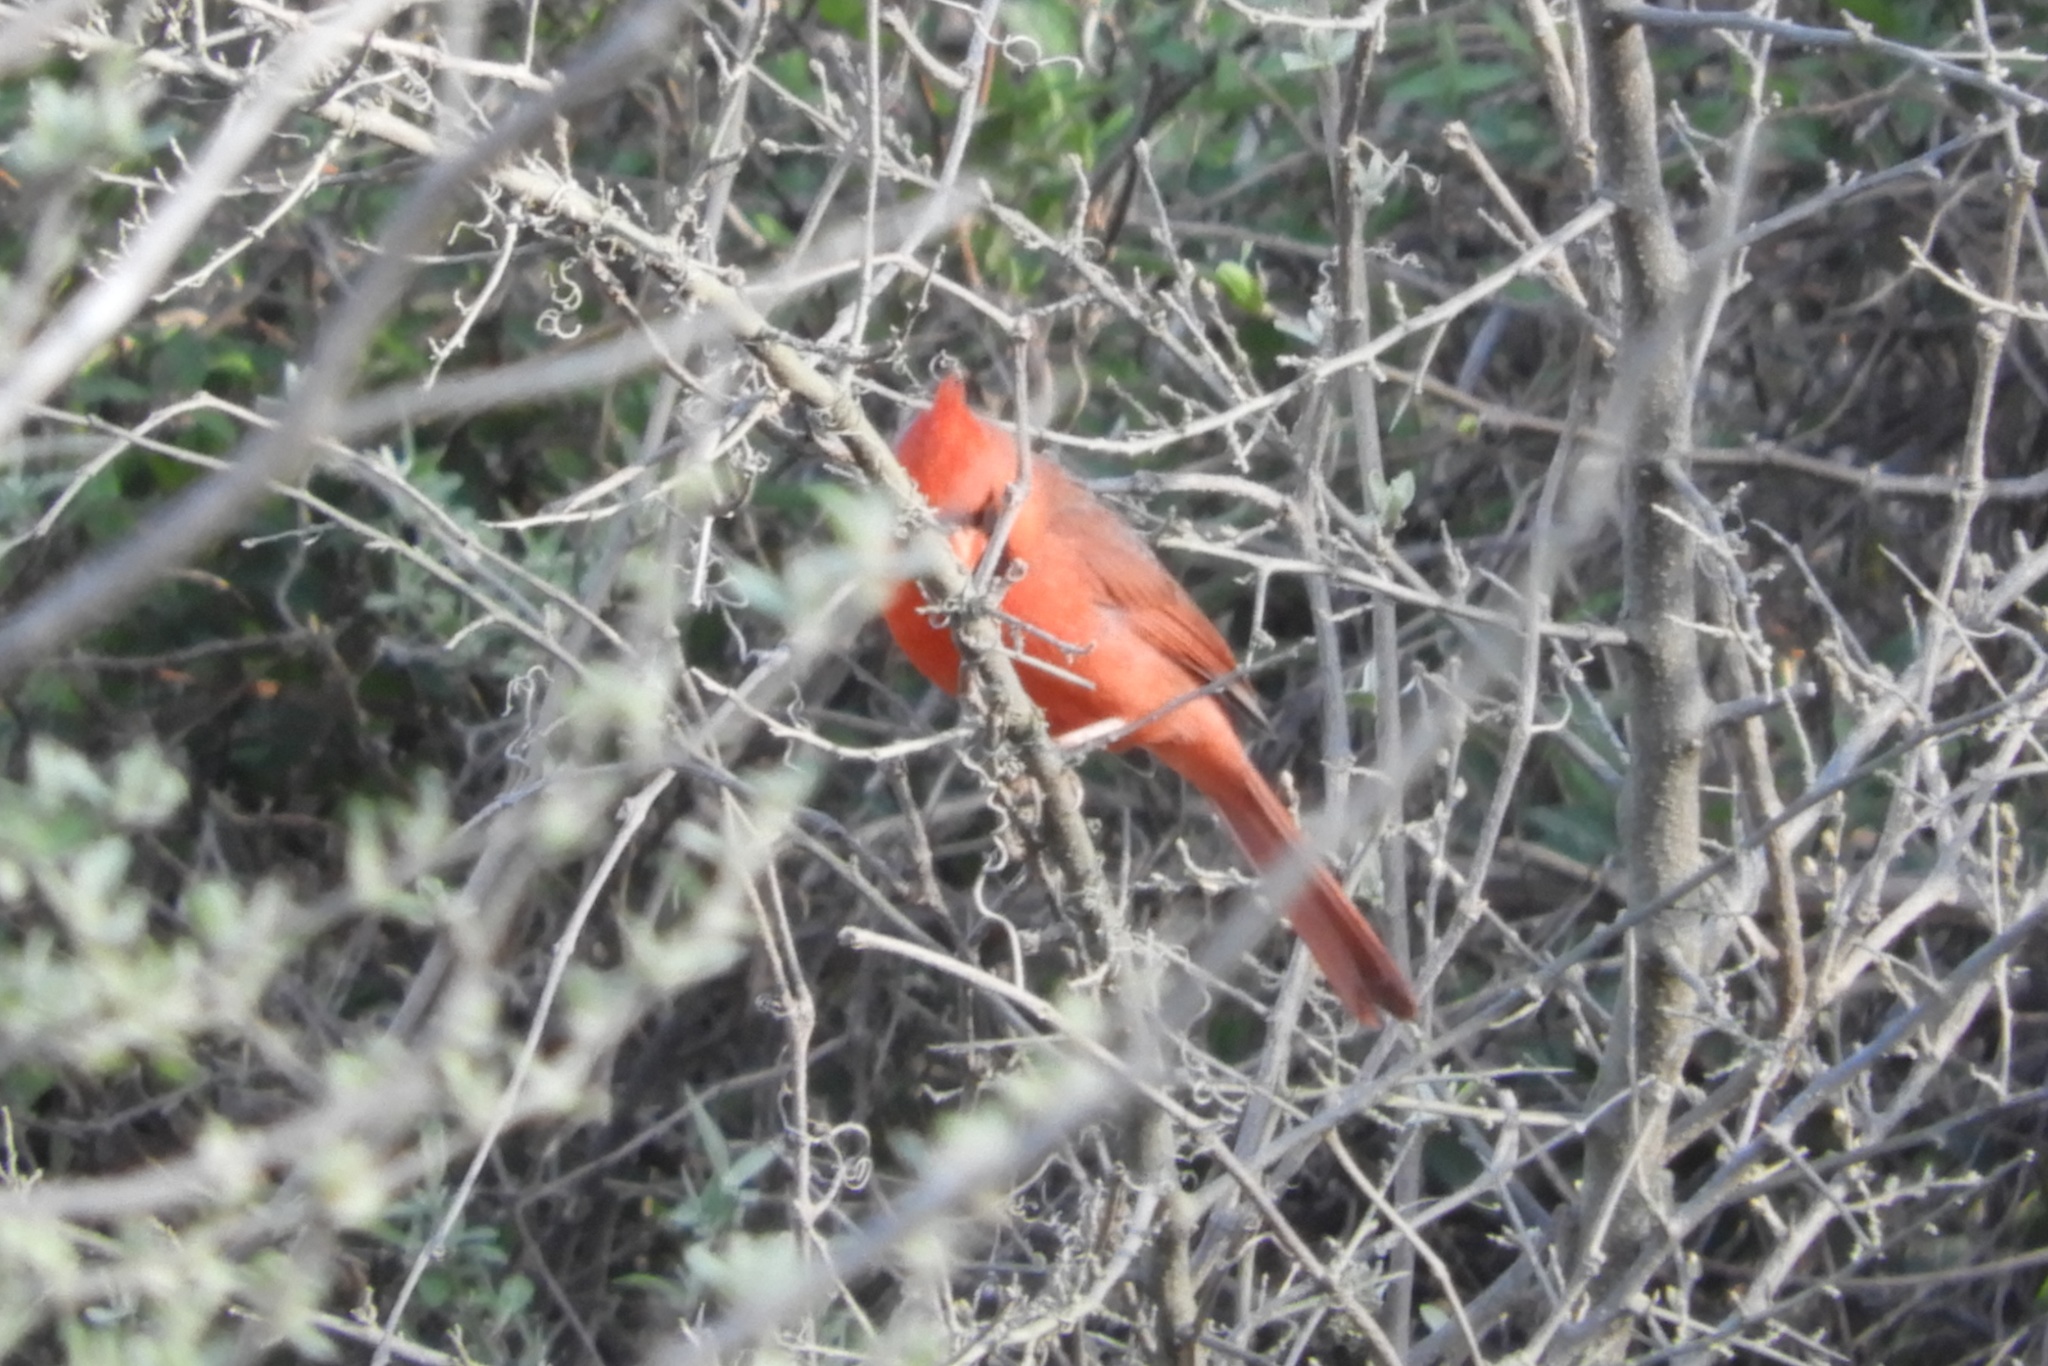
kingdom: Animalia
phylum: Chordata
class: Aves
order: Passeriformes
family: Cardinalidae
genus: Cardinalis
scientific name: Cardinalis cardinalis
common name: Northern cardinal
